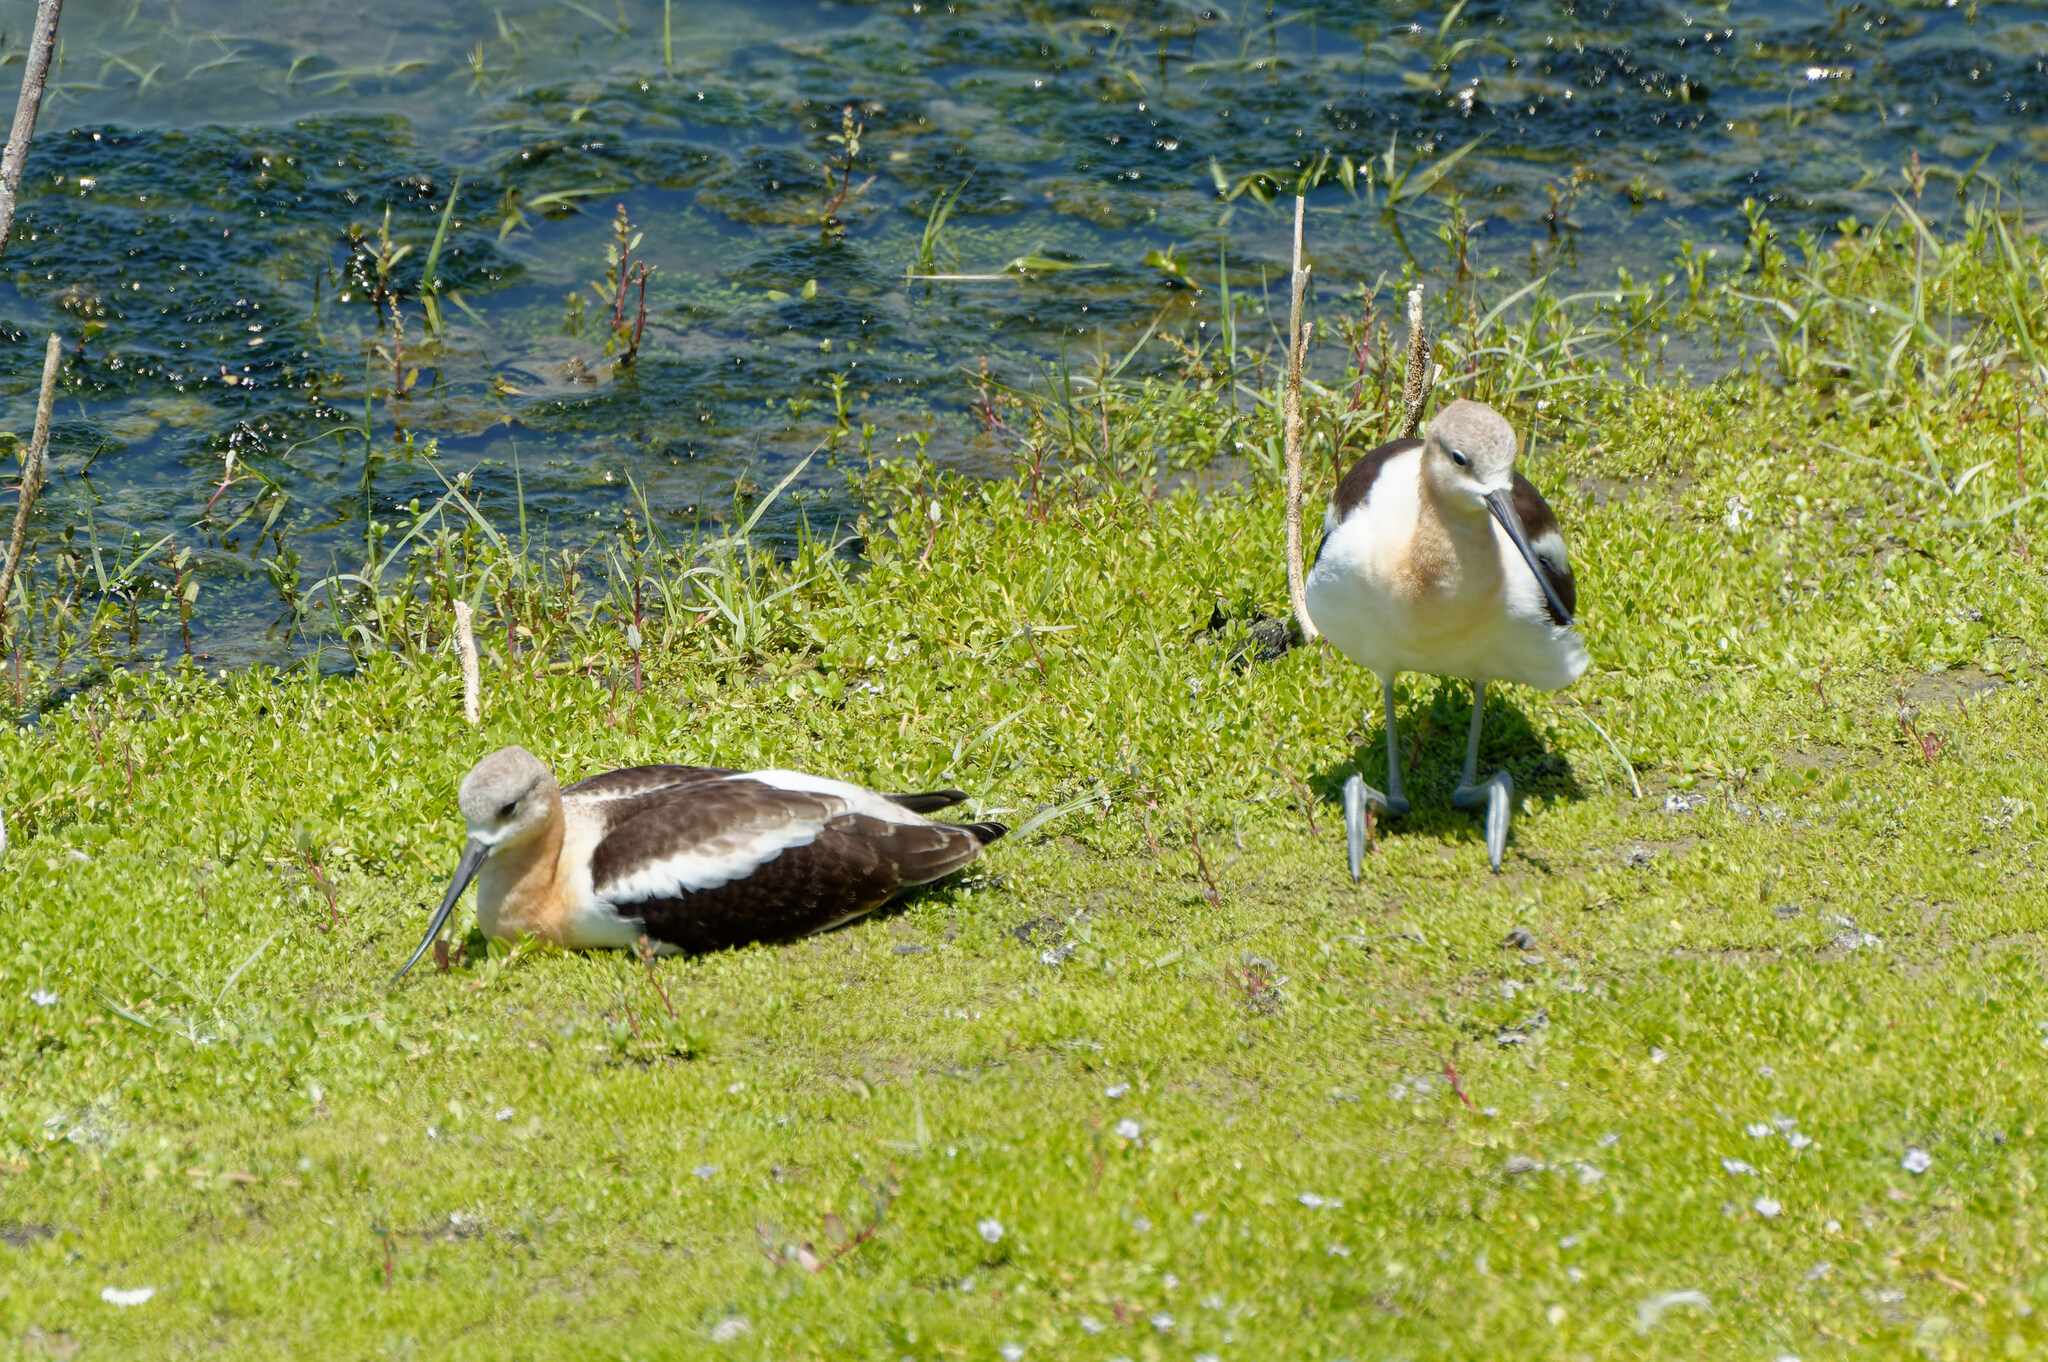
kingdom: Animalia
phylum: Chordata
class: Aves
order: Charadriiformes
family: Recurvirostridae
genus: Recurvirostra
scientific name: Recurvirostra americana
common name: American avocet
